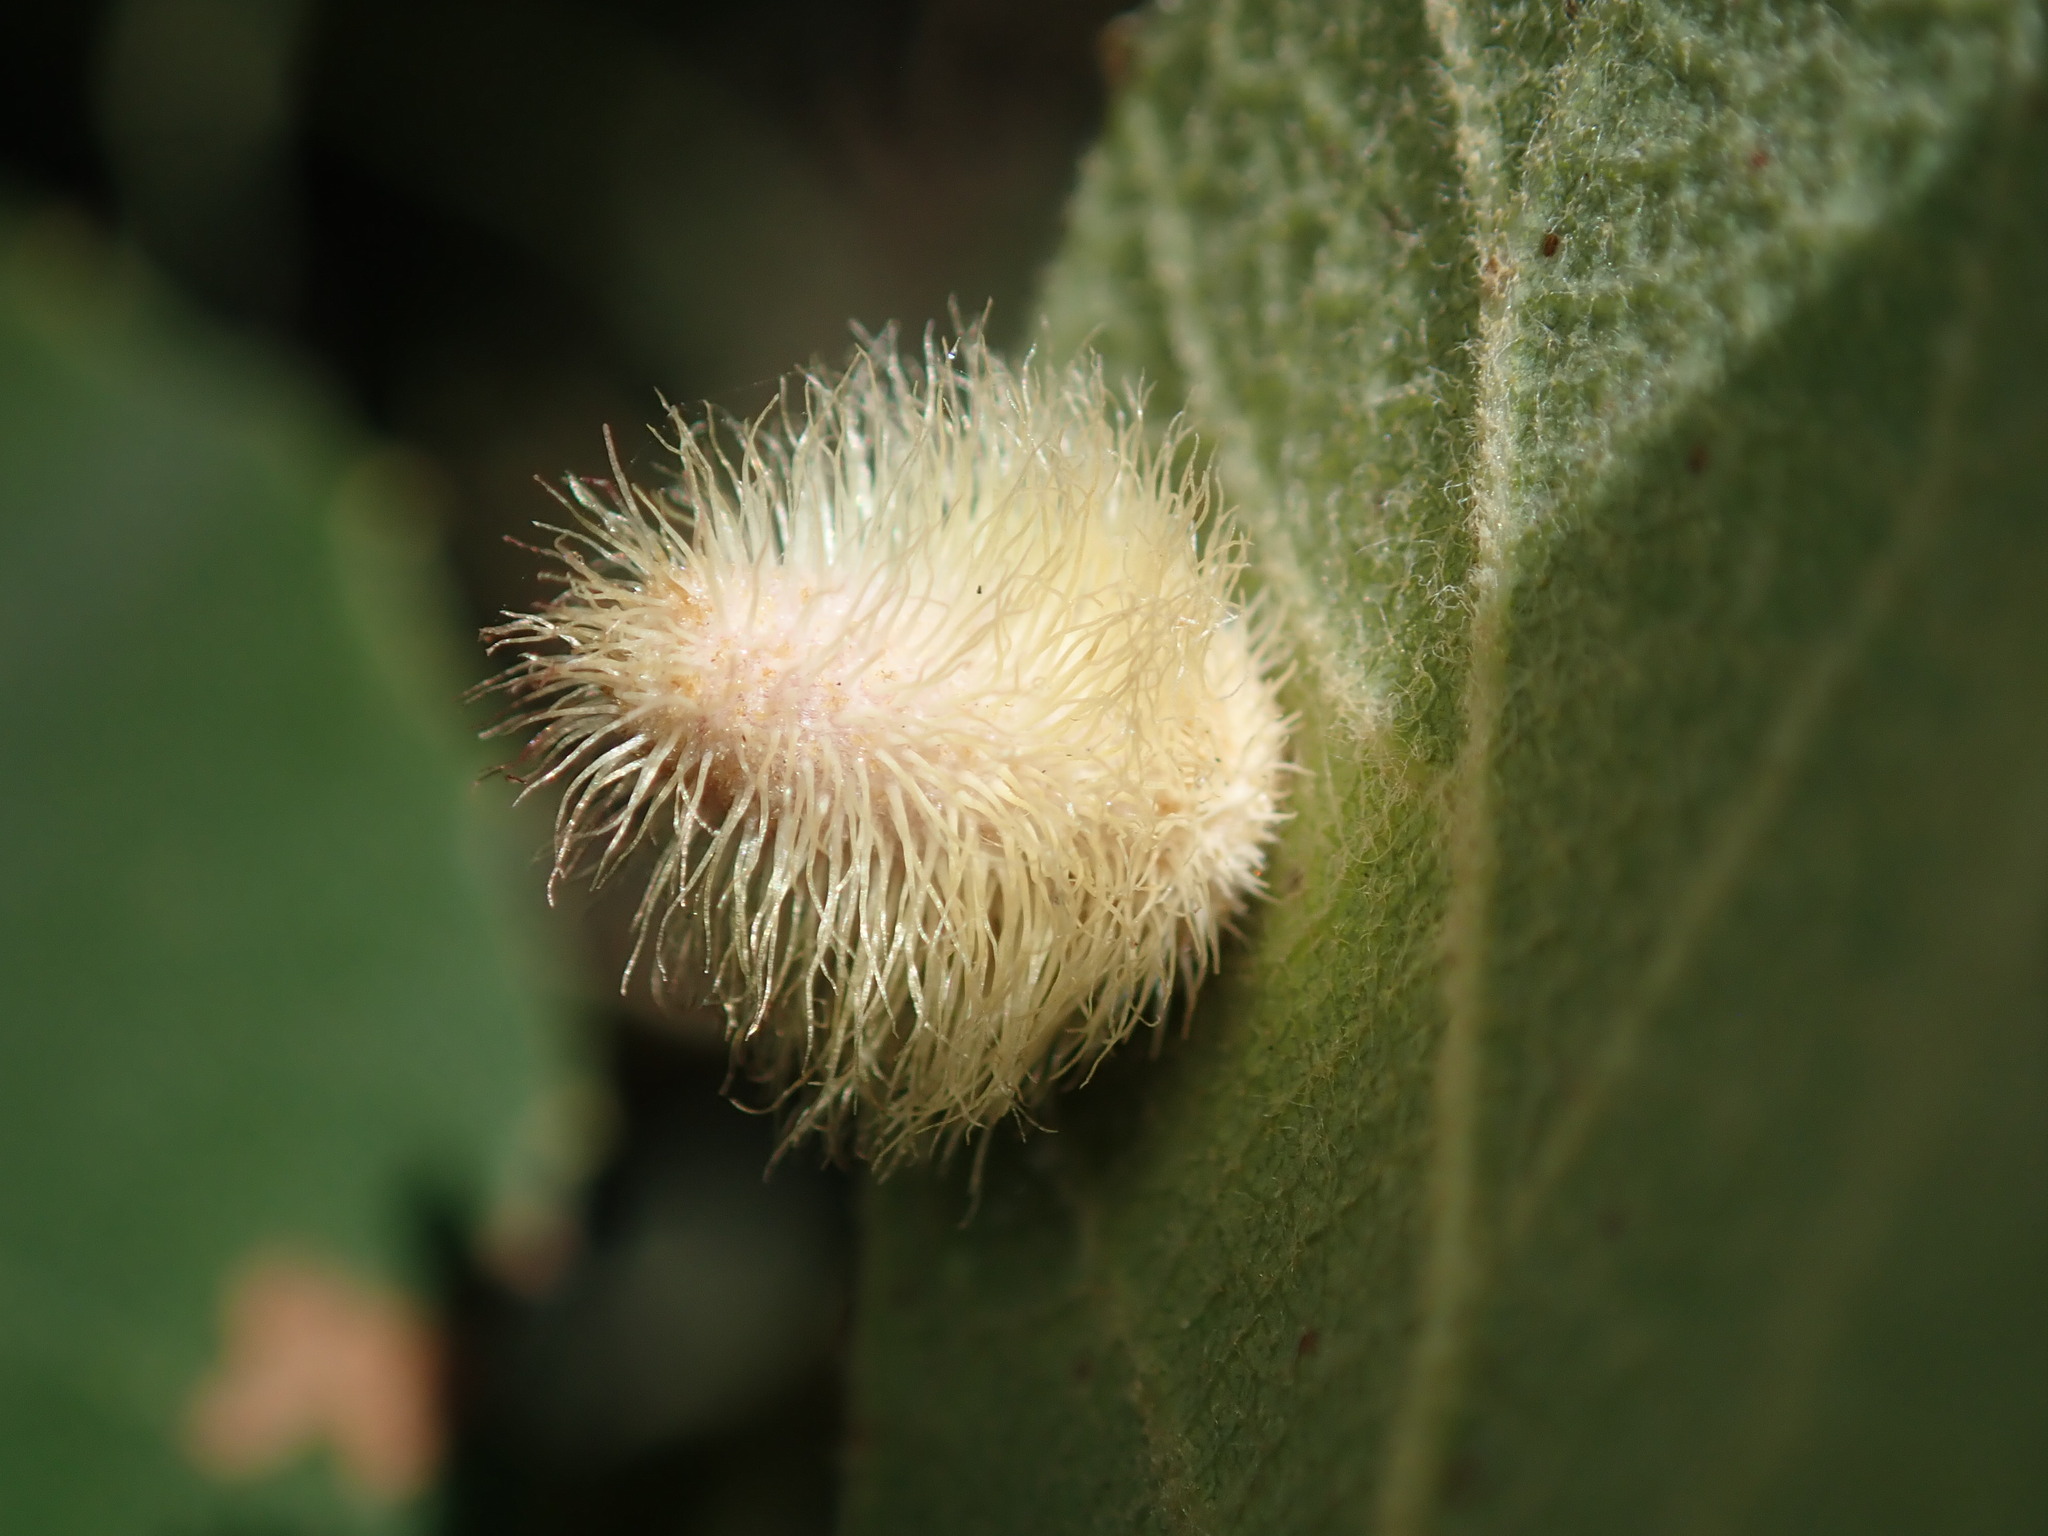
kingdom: Animalia
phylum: Arthropoda
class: Insecta
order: Hymenoptera
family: Cynipidae
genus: Andricus
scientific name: Andricus
